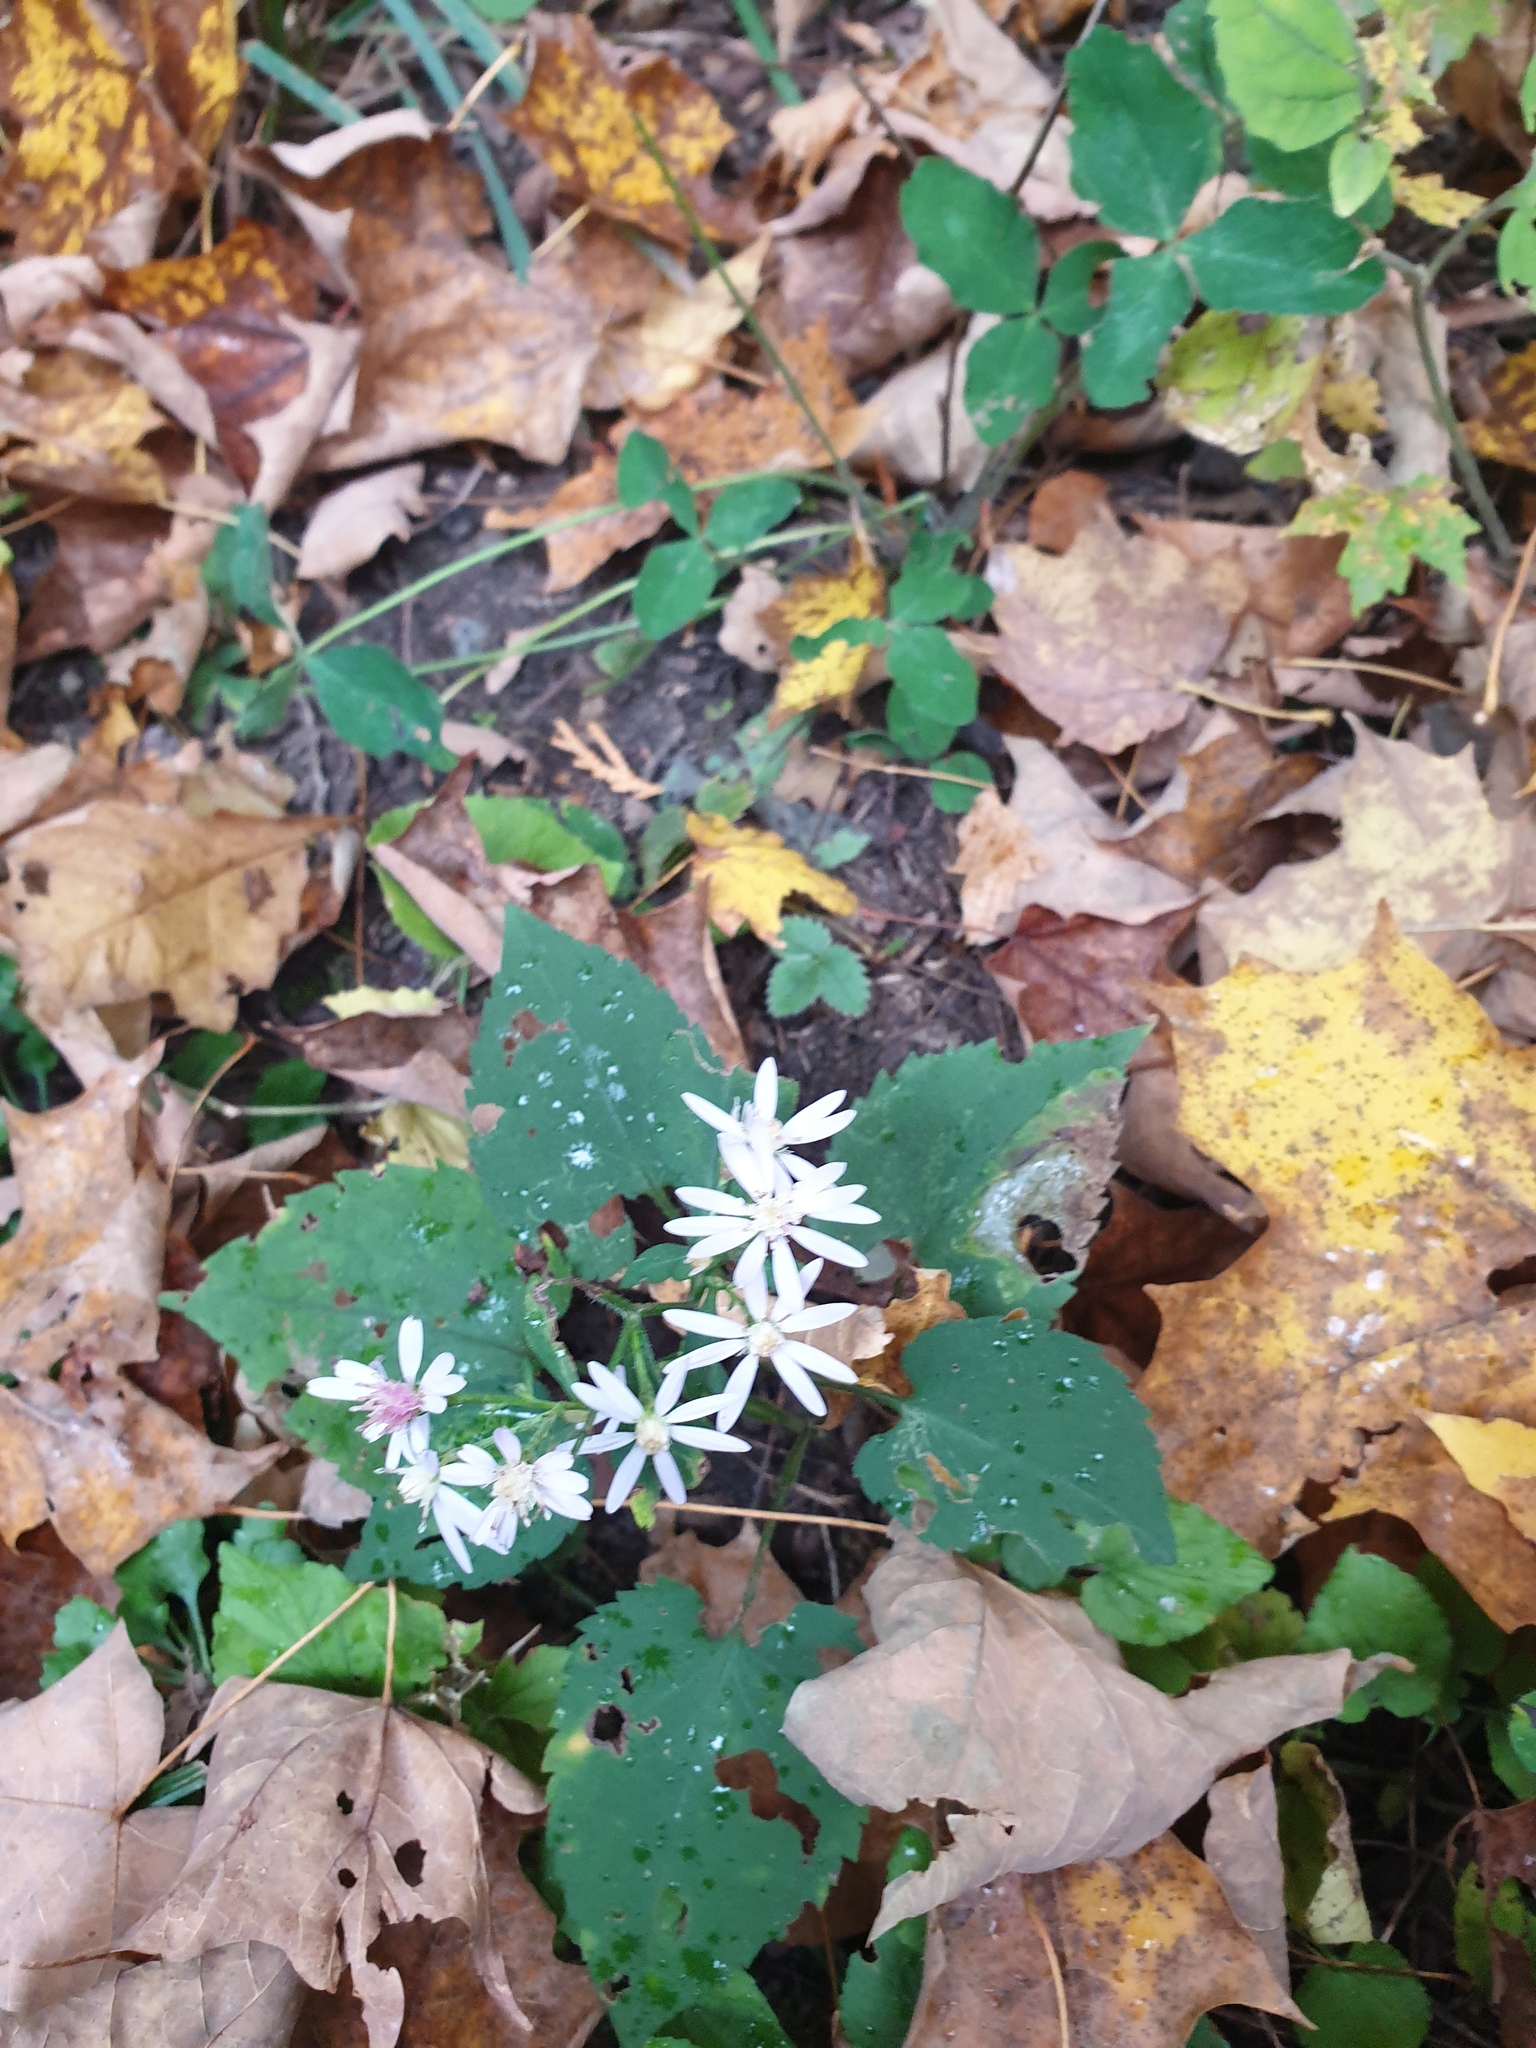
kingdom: Plantae
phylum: Tracheophyta
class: Magnoliopsida
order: Asterales
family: Asteraceae
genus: Symphyotrichum
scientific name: Symphyotrichum cordifolium
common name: Beeweed
